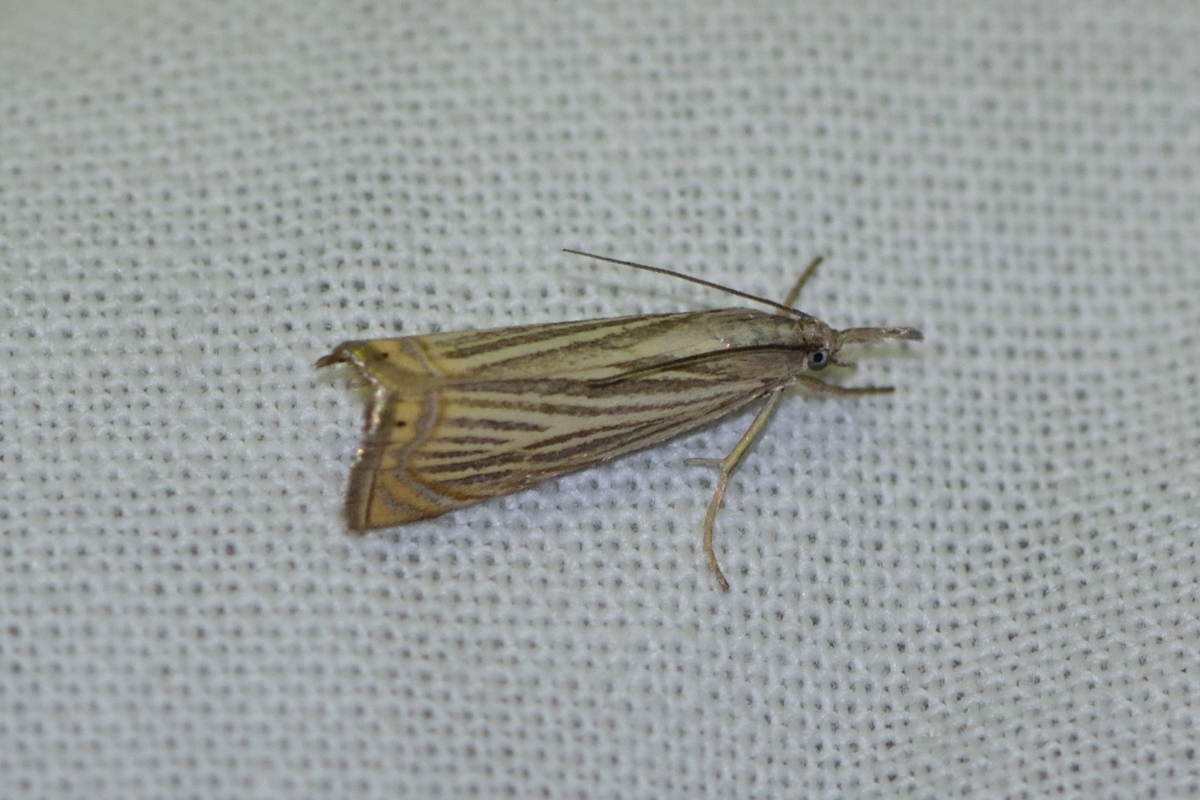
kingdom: Animalia
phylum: Arthropoda
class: Insecta
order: Lepidoptera
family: Crambidae
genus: Chrysoteuchia
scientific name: Chrysoteuchia culmella
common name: Garden grass-veneer
